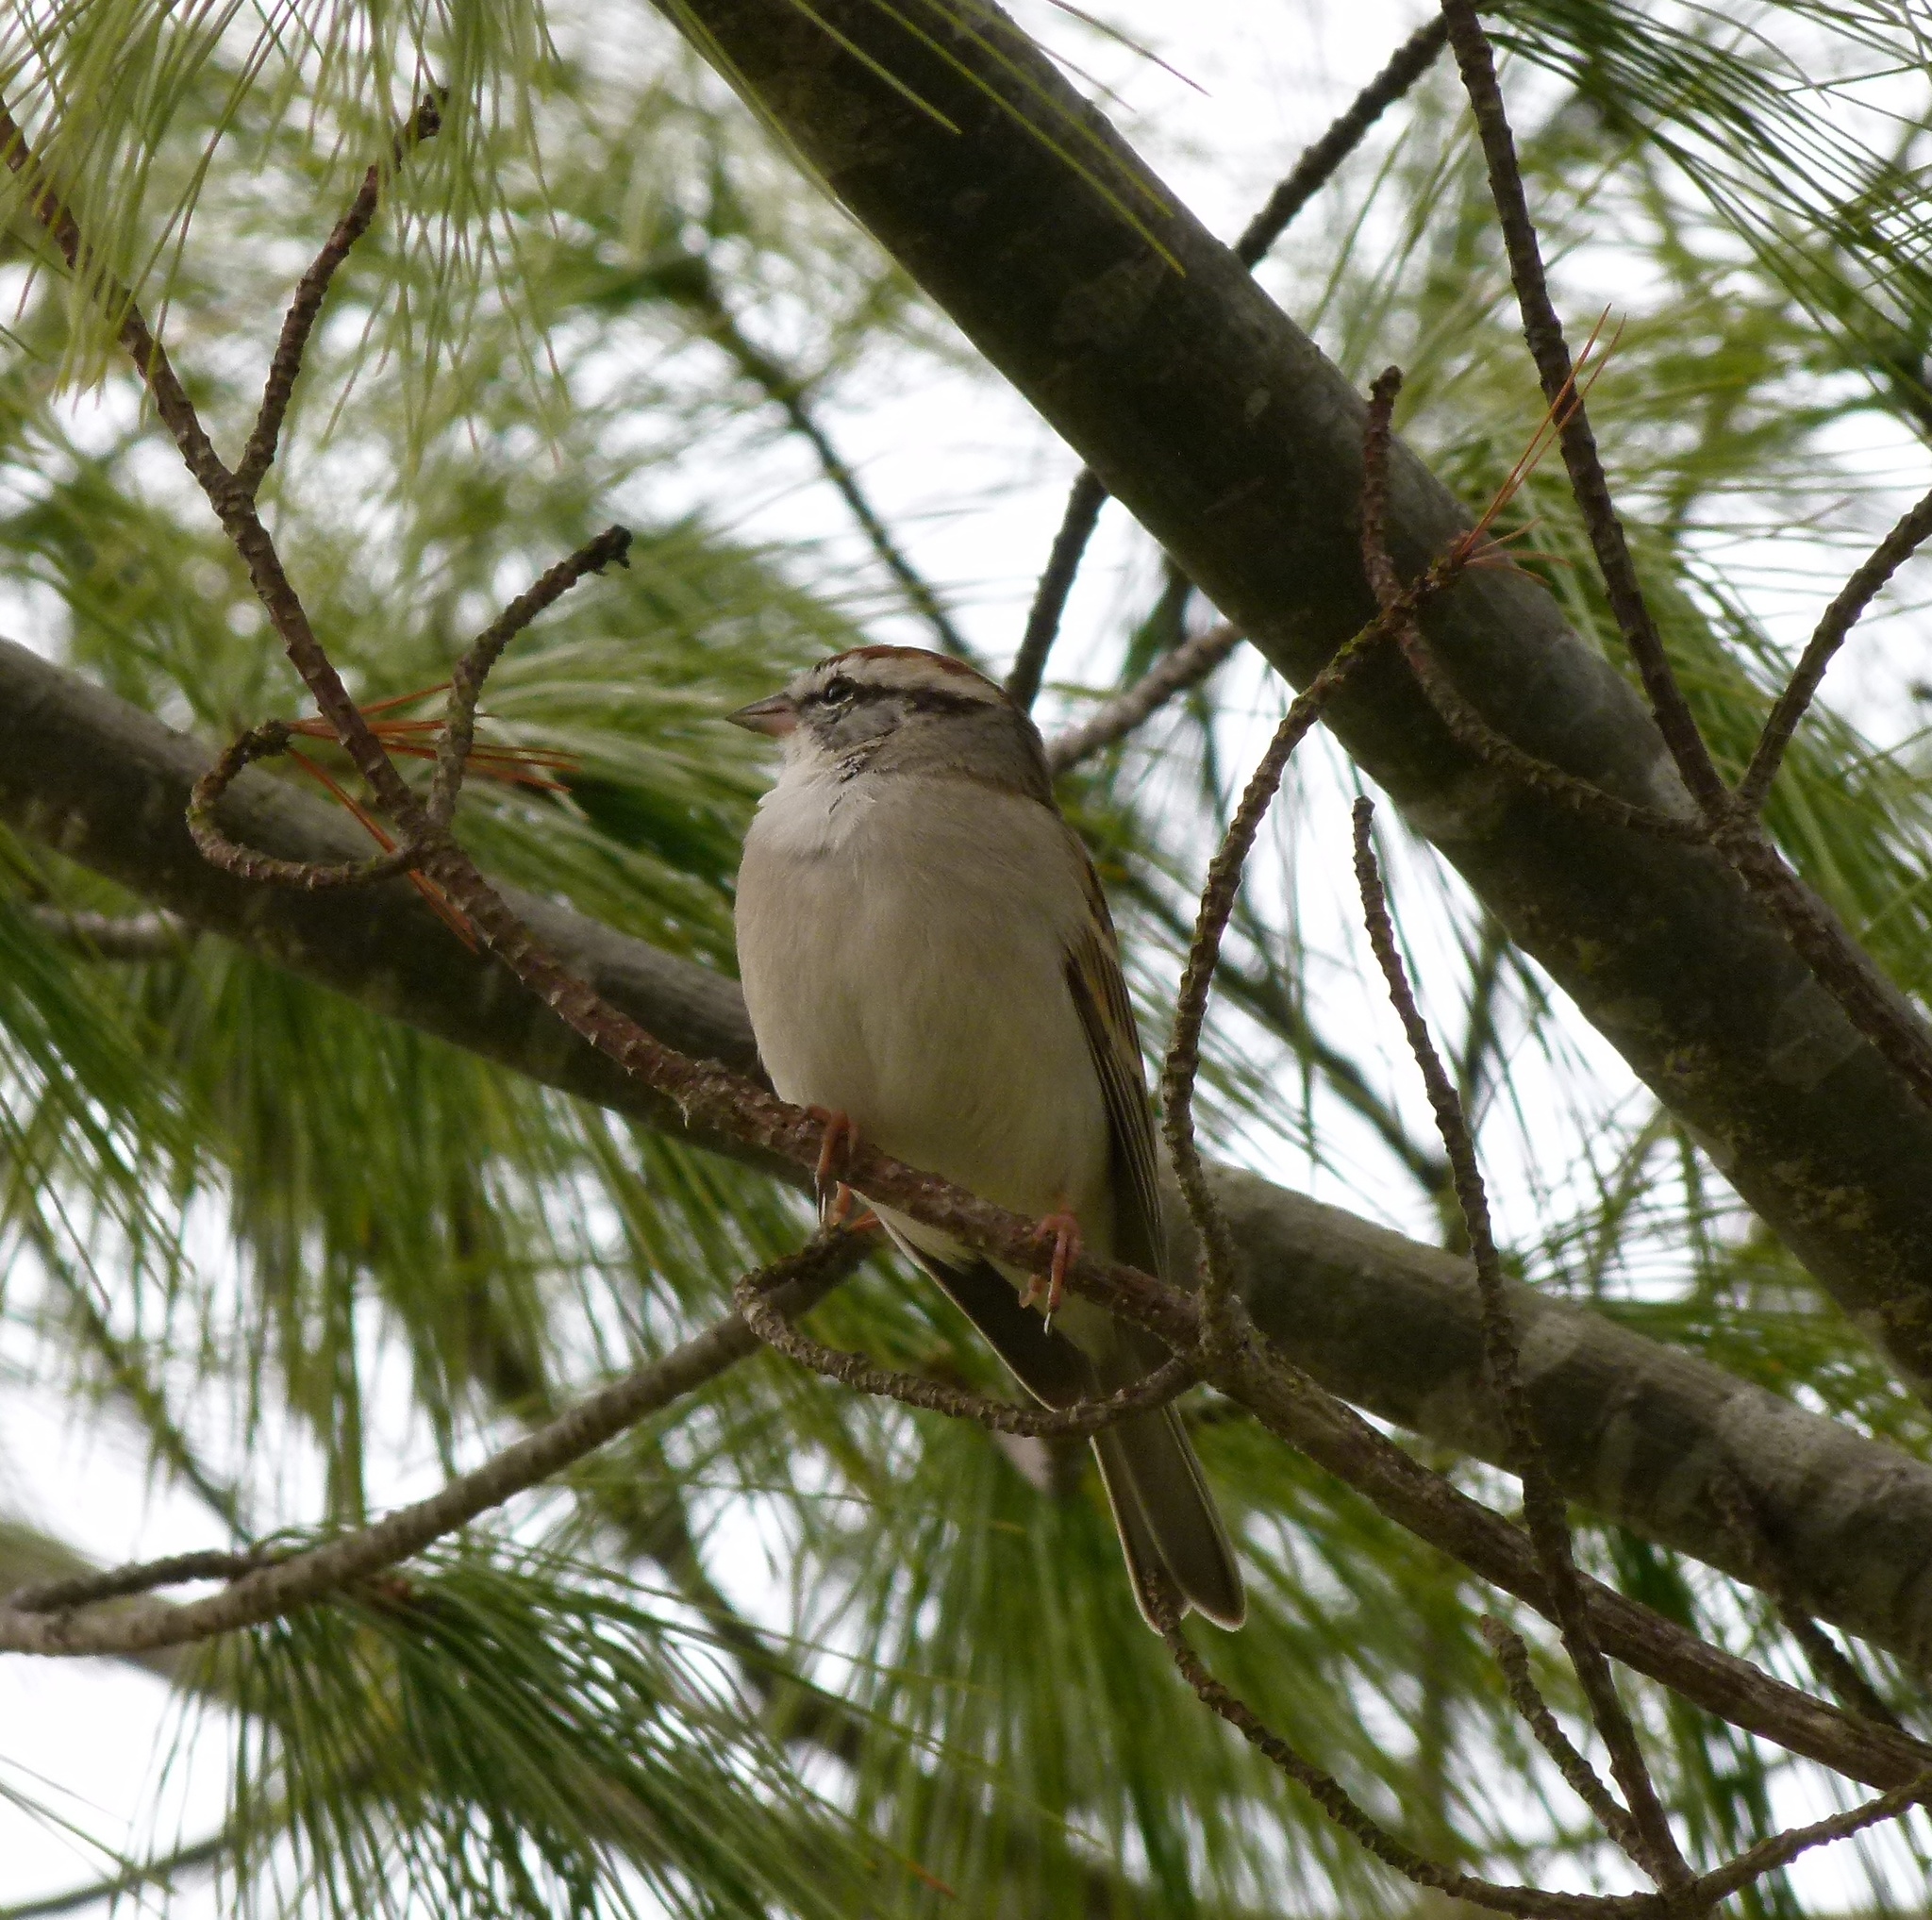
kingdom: Animalia
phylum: Chordata
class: Aves
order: Passeriformes
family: Passerellidae
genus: Spizella
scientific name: Spizella passerina
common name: Chipping sparrow
